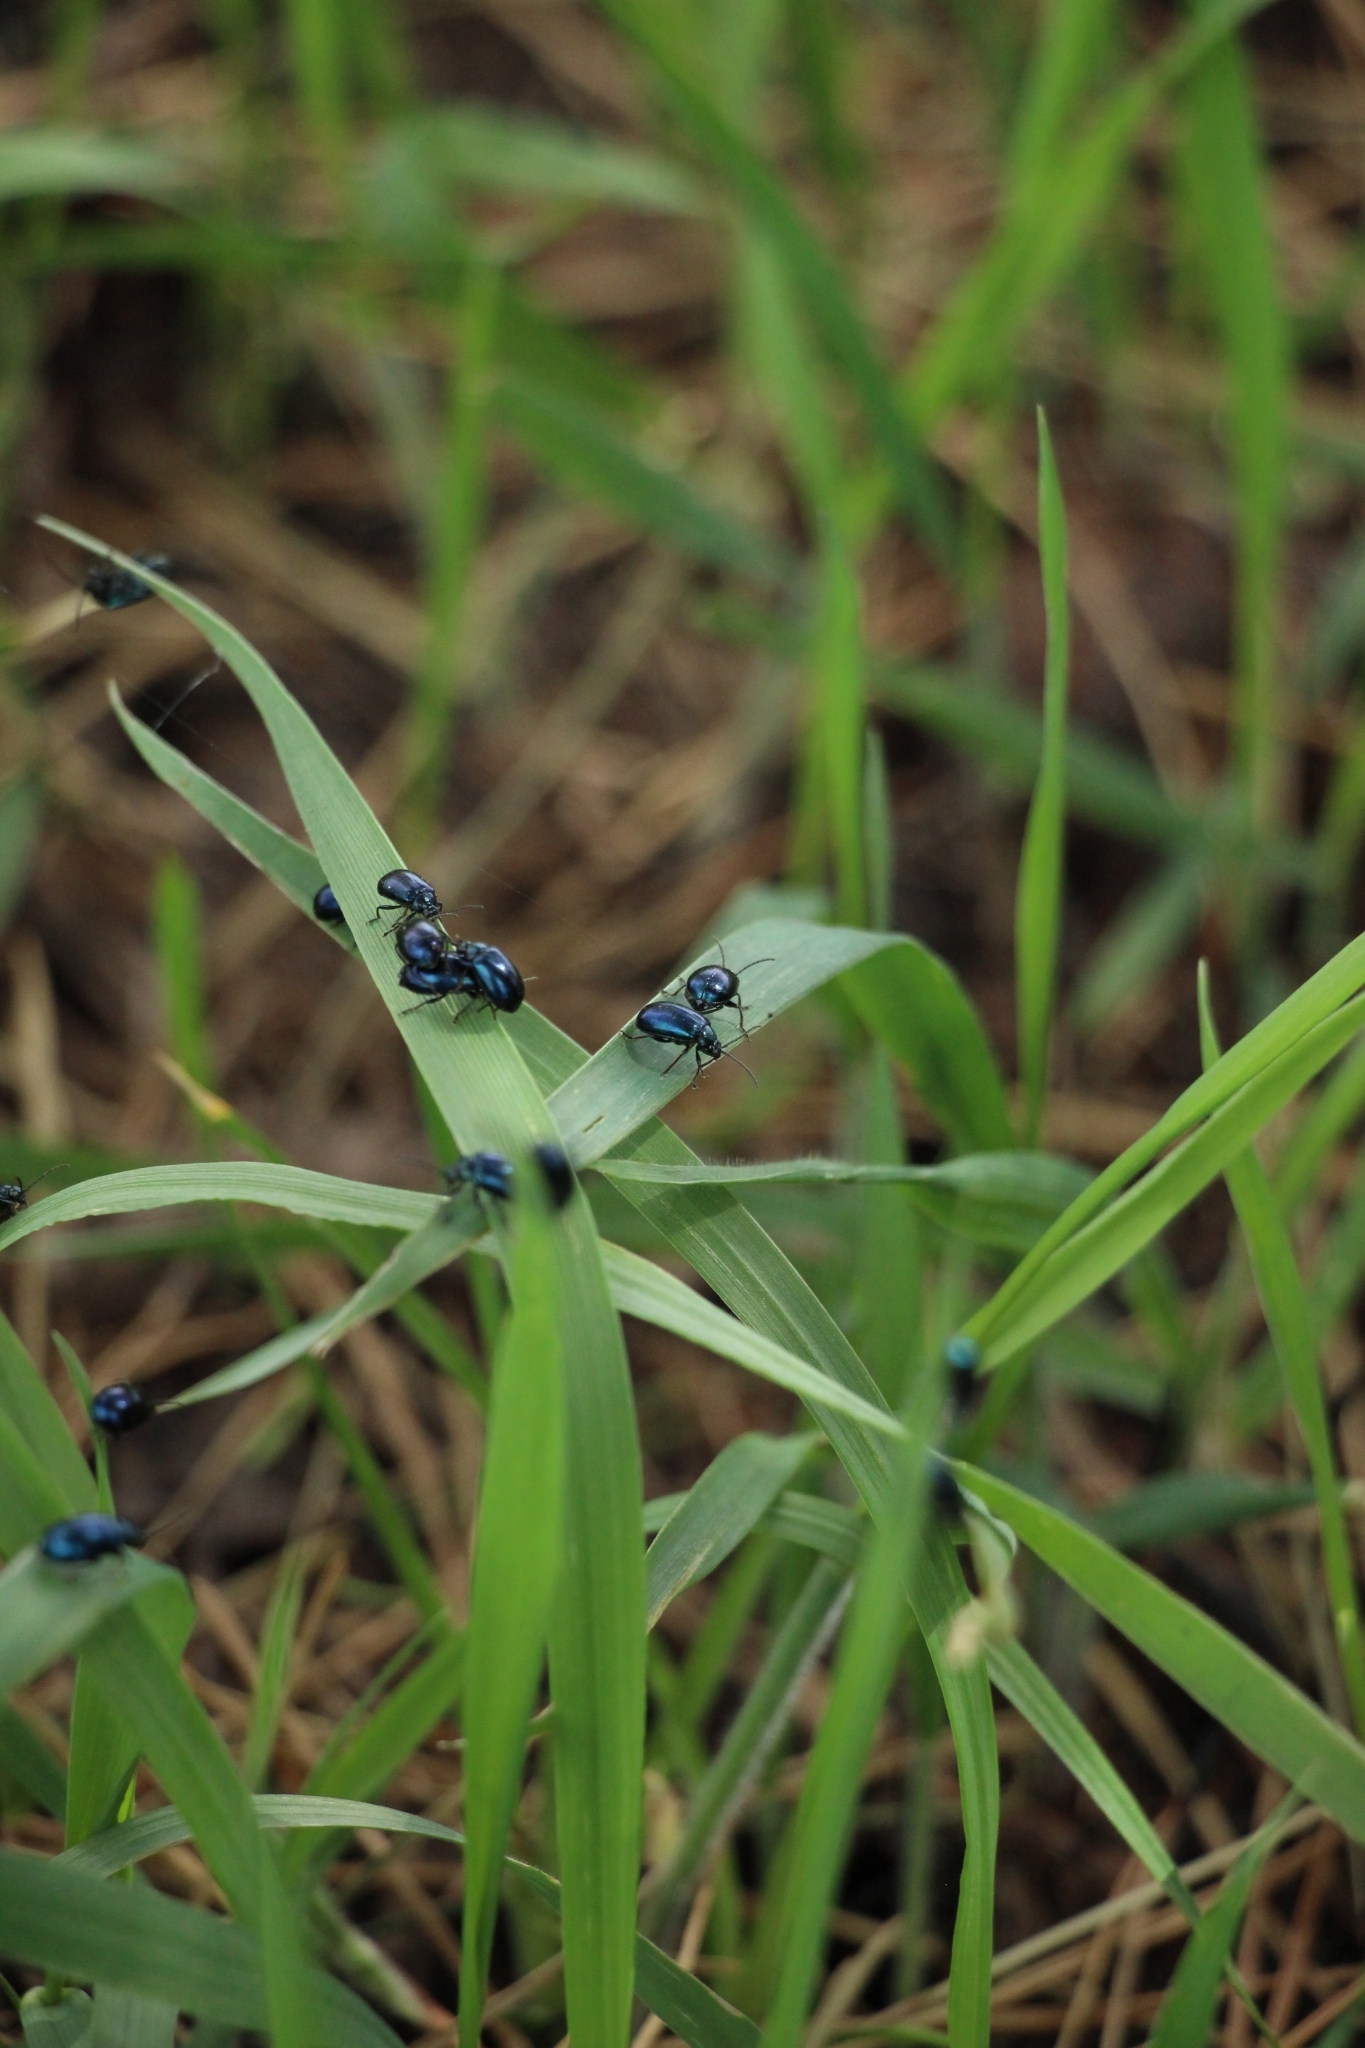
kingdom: Animalia
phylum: Arthropoda
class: Insecta
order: Coleoptera
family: Chrysomelidae
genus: Agelastica
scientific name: Agelastica alni
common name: Alder leaf beetle
